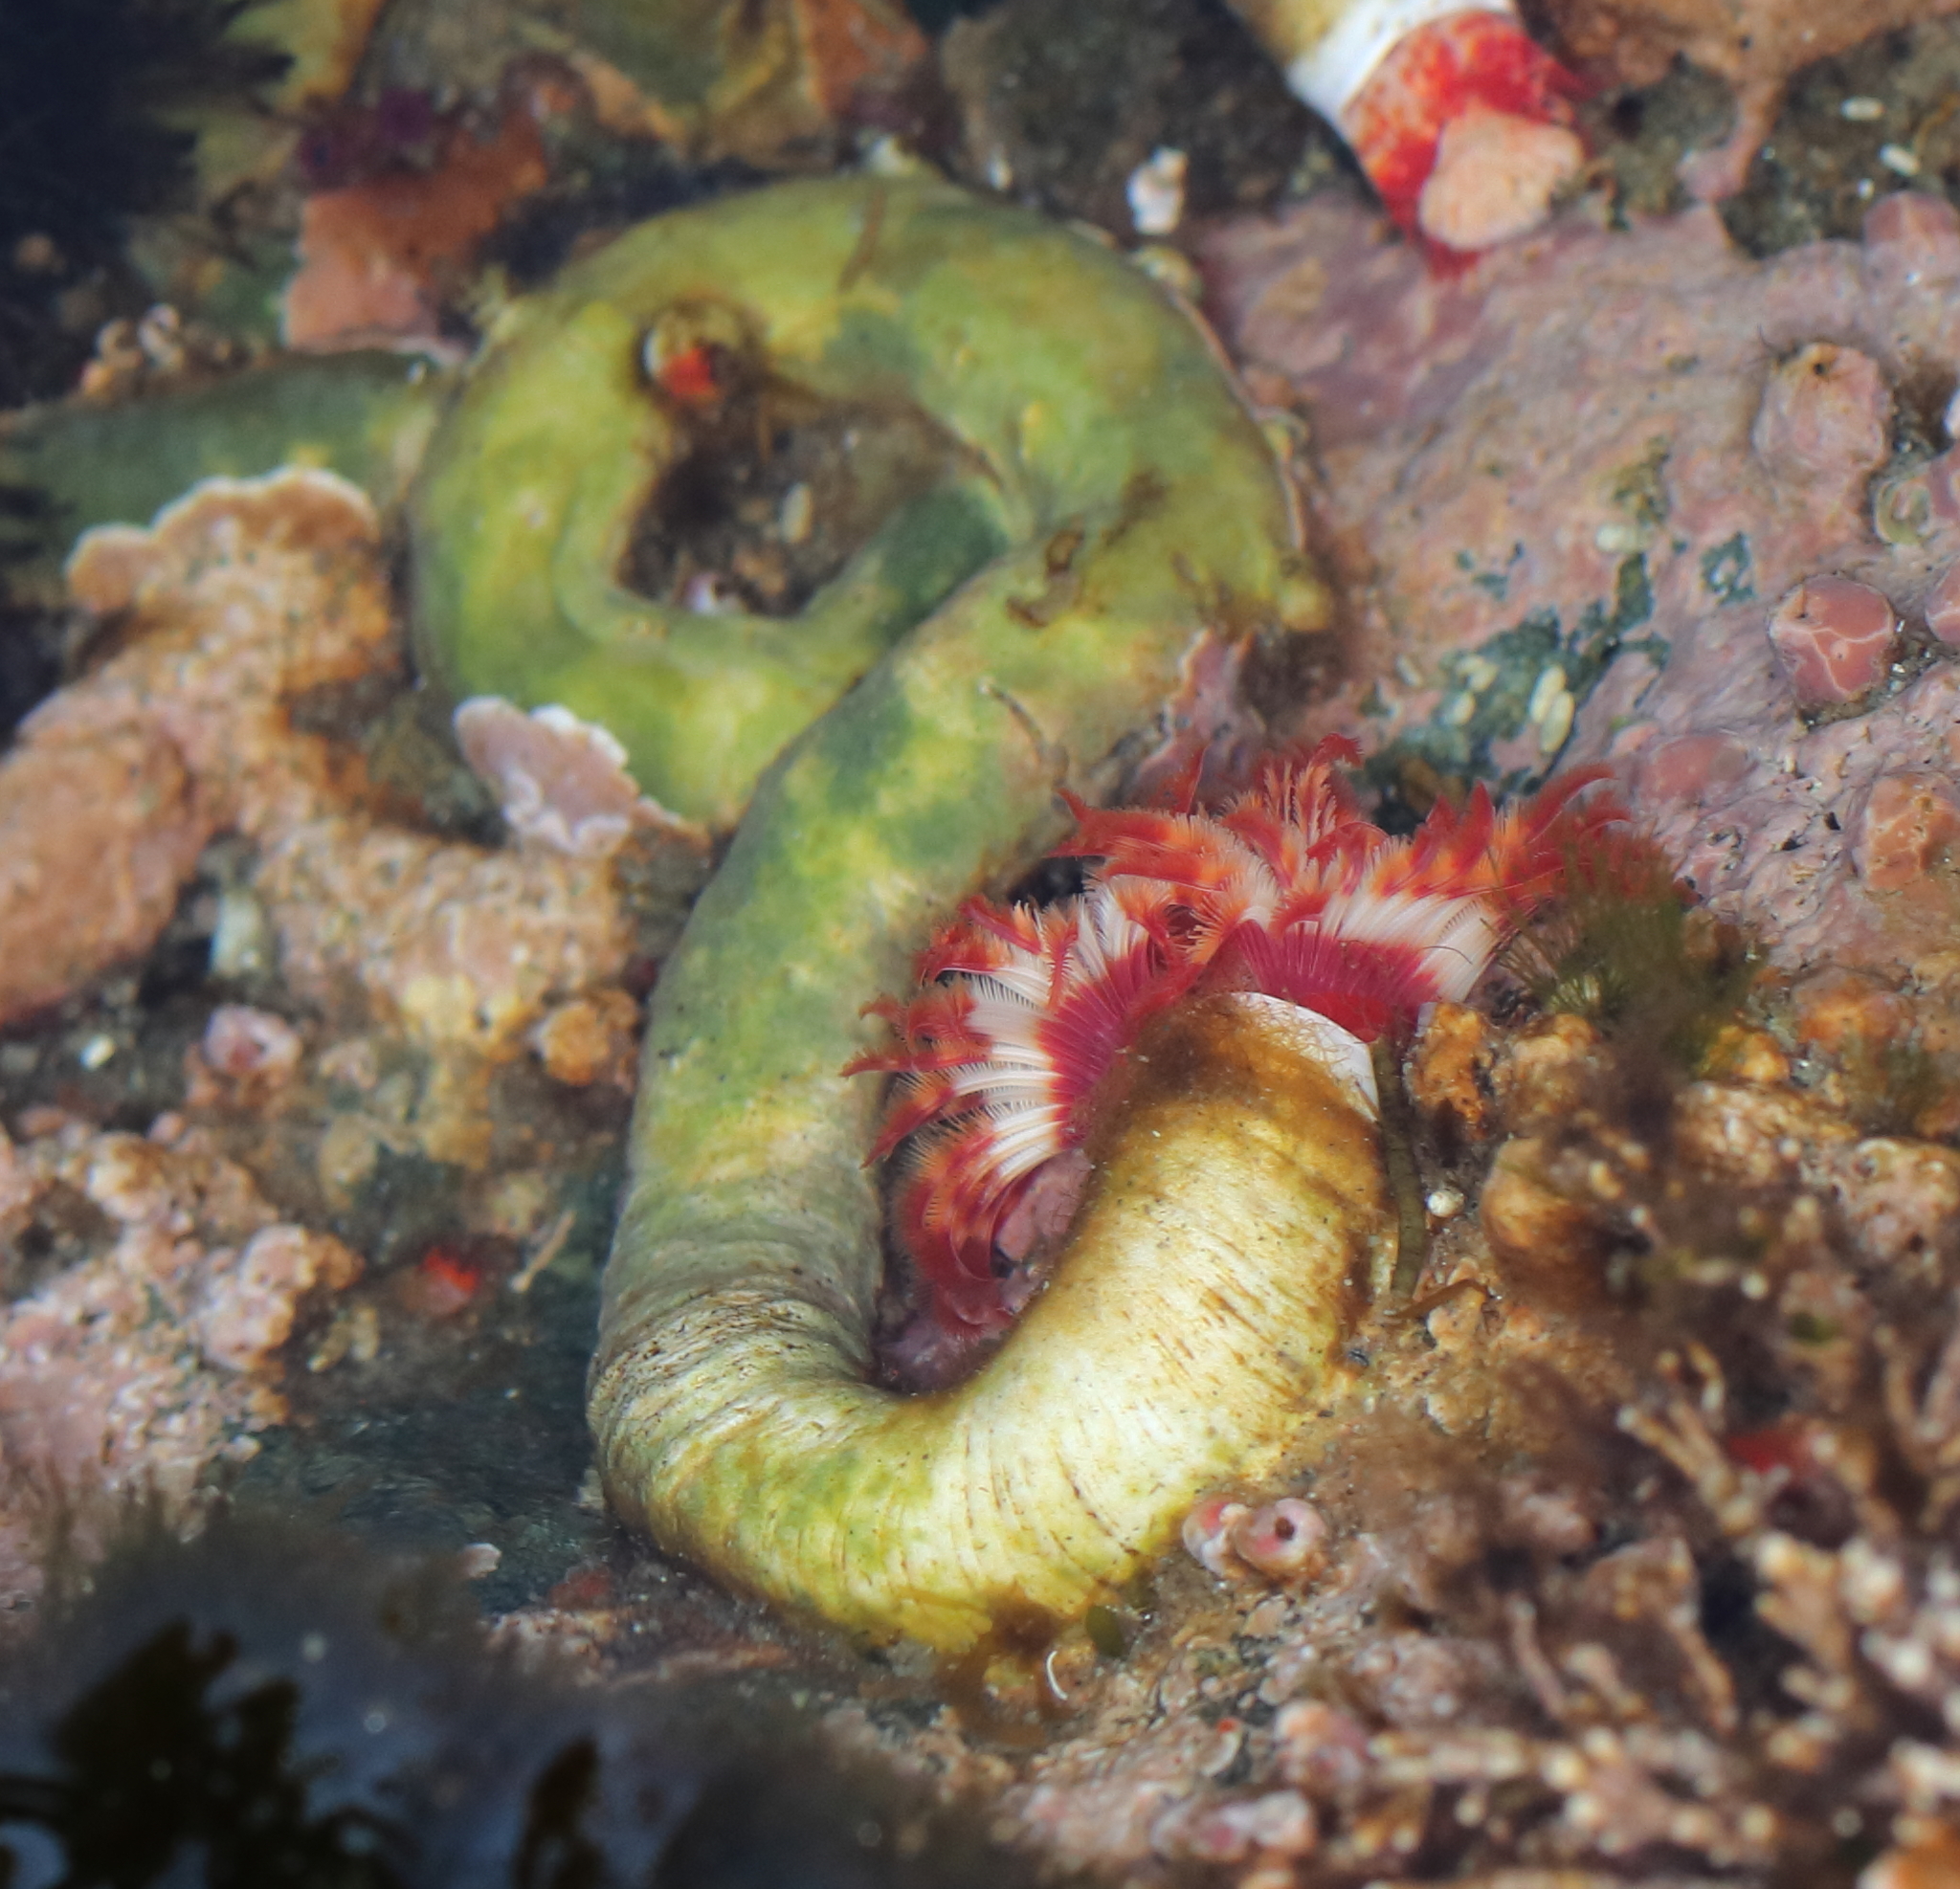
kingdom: Animalia
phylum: Annelida
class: Polychaeta
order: Sabellida
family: Serpulidae
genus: Serpula
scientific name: Serpula columbiana
